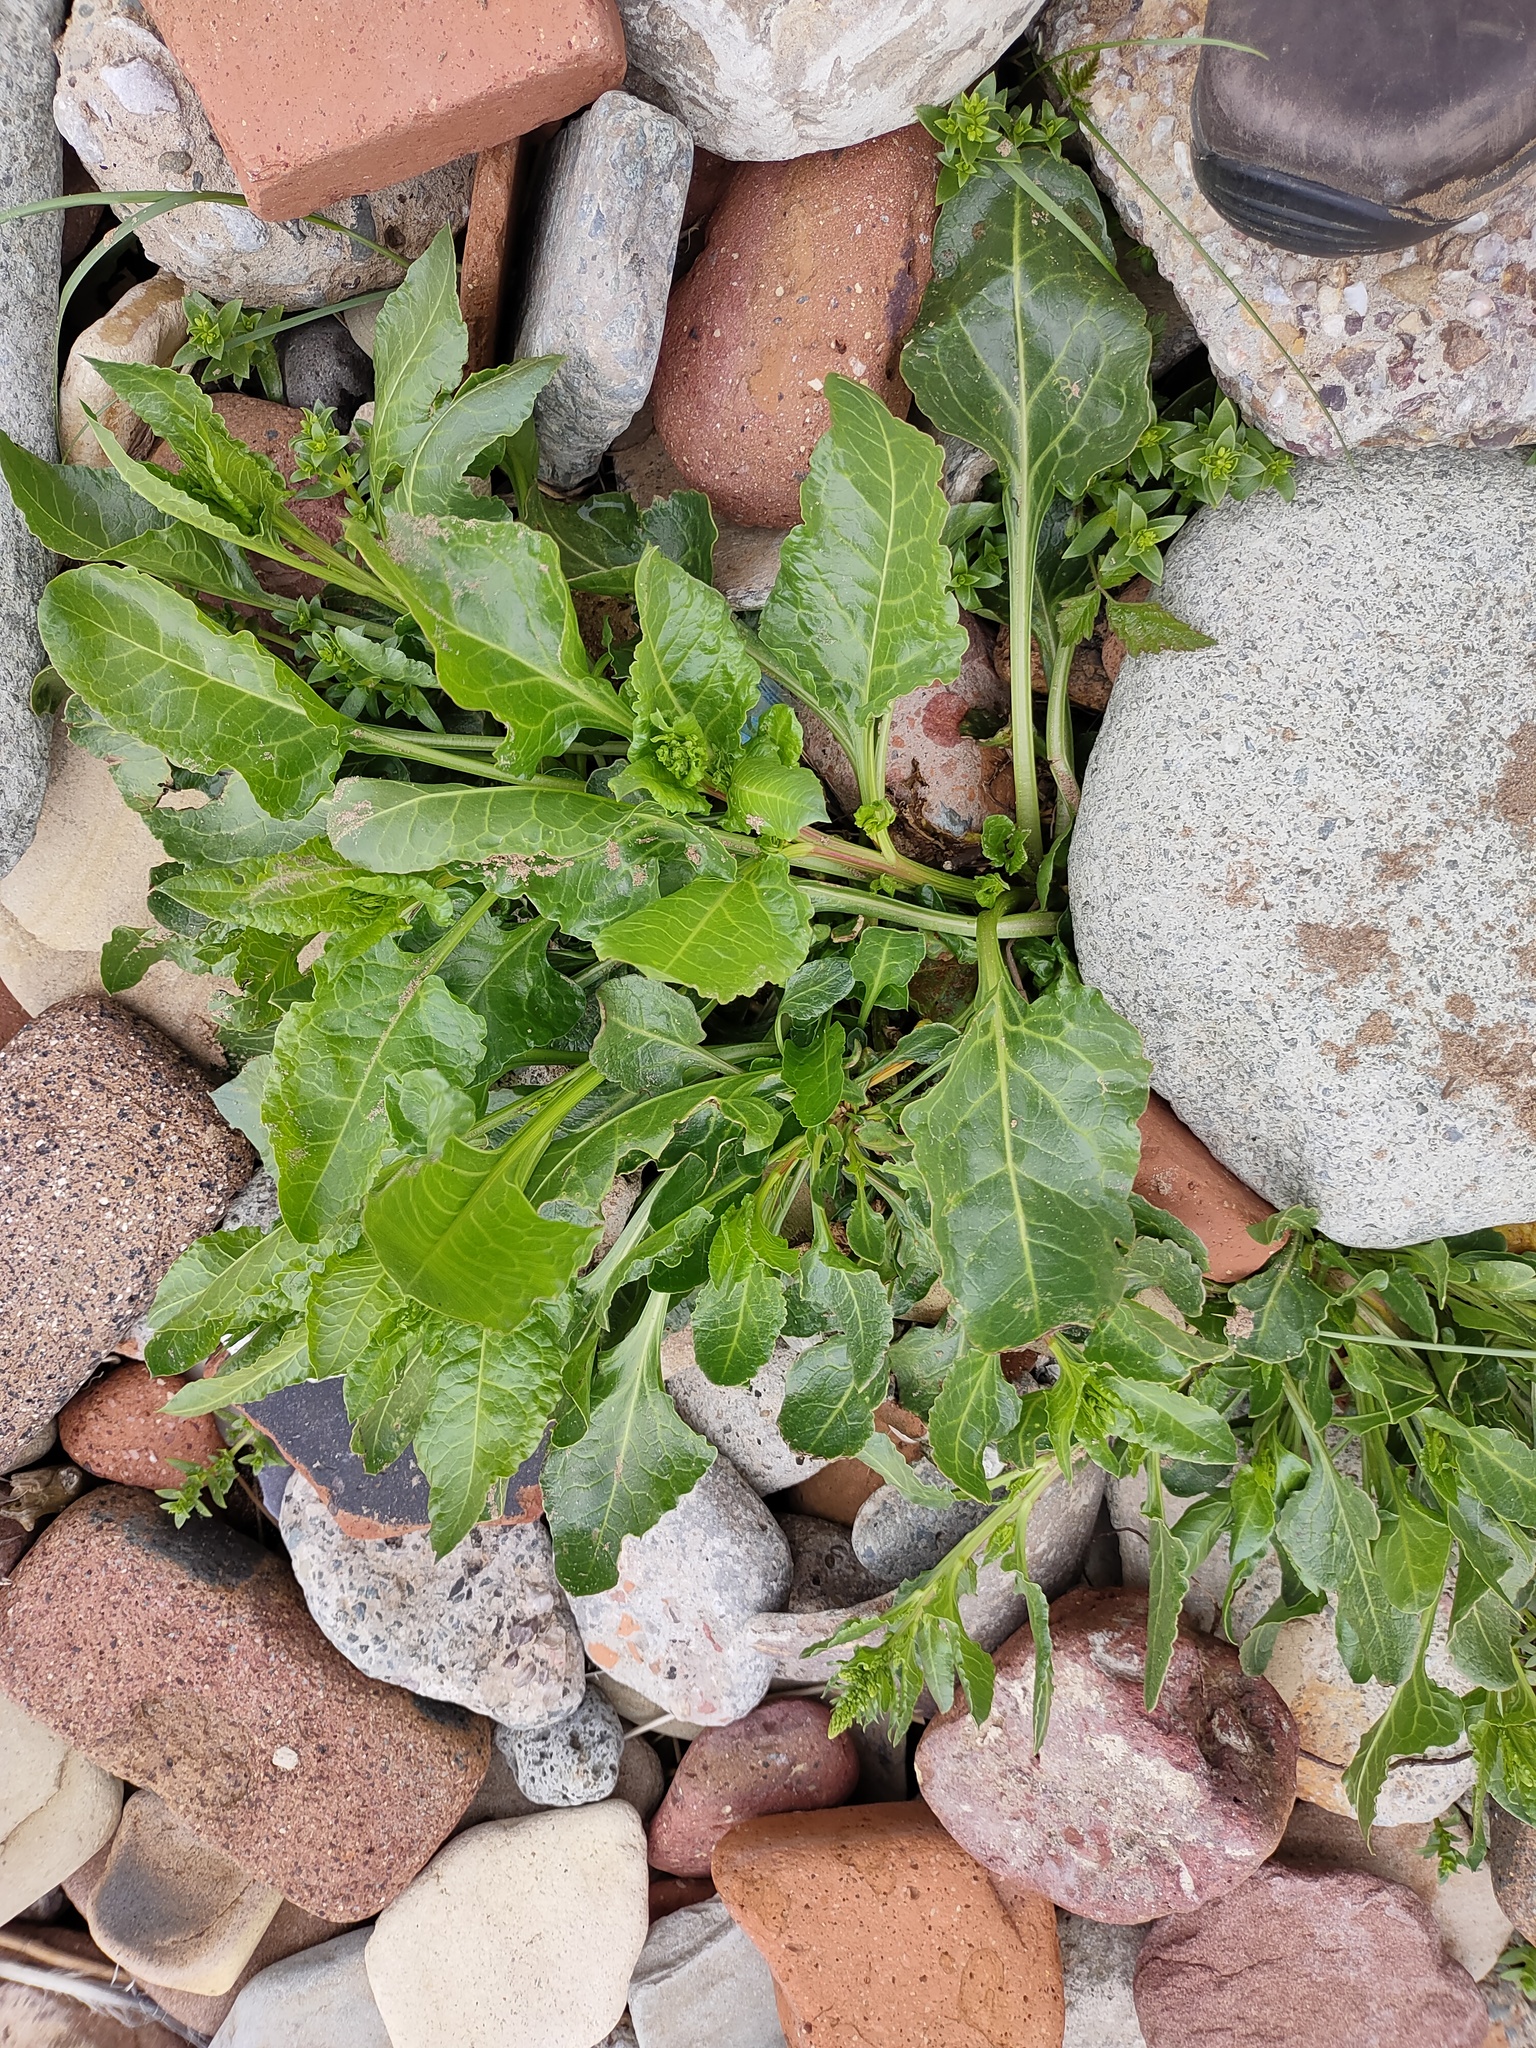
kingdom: Plantae
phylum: Tracheophyta
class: Magnoliopsida
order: Caryophyllales
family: Amaranthaceae
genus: Beta
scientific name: Beta vulgaris
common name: Beet
